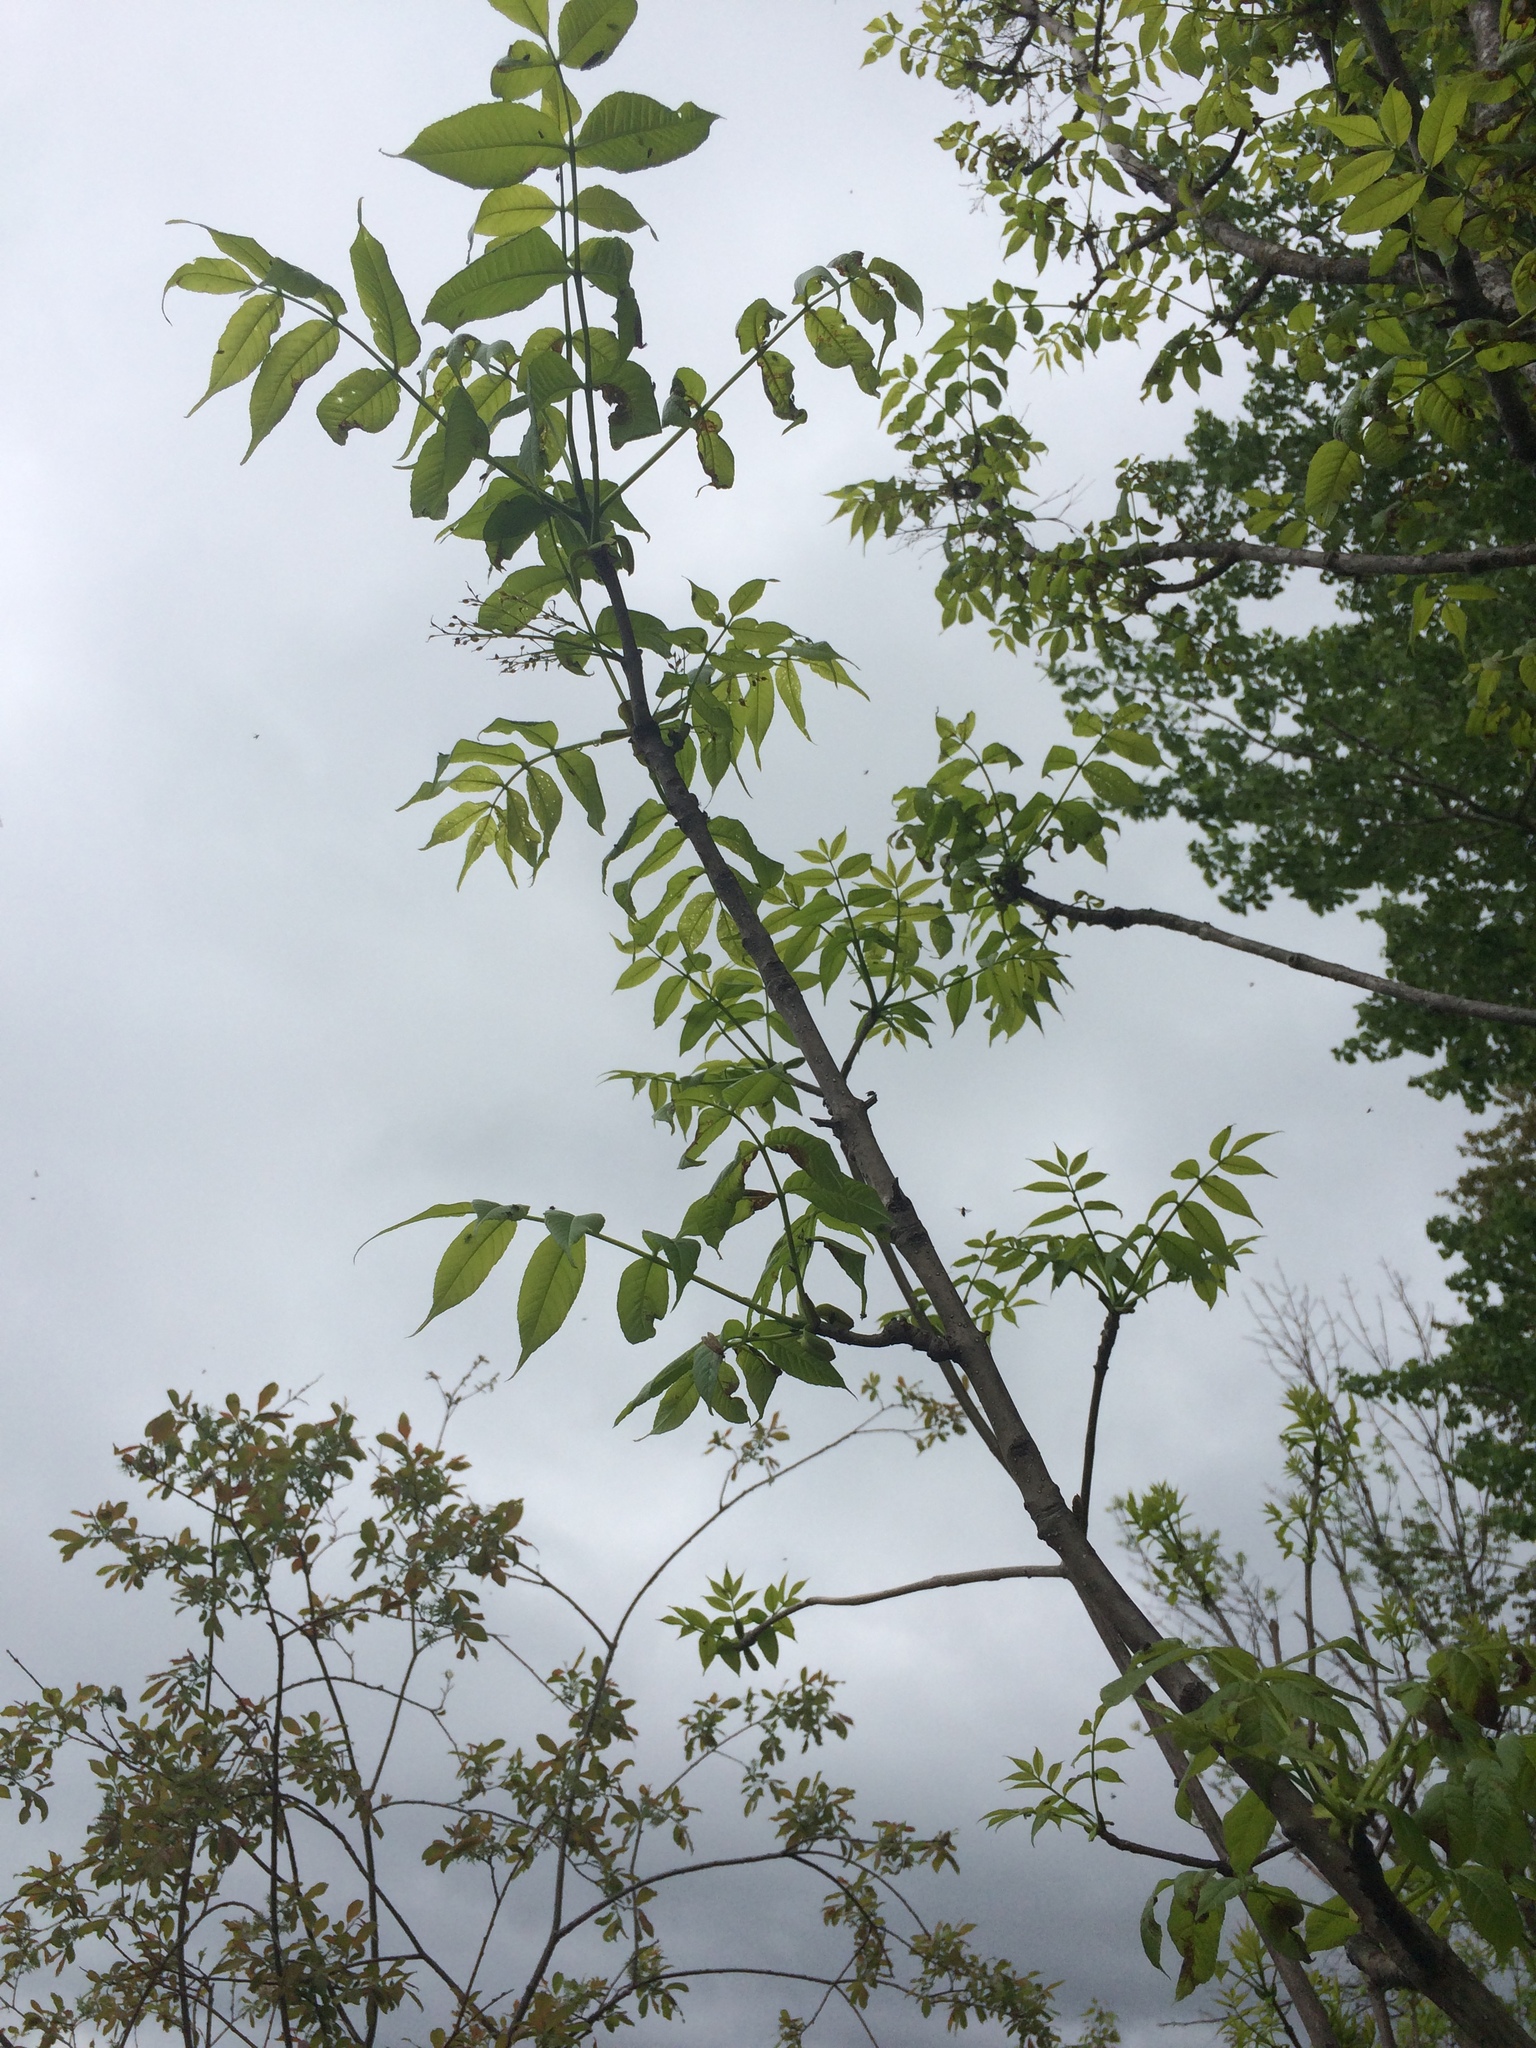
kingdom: Plantae
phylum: Tracheophyta
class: Magnoliopsida
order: Lamiales
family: Oleaceae
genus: Fraxinus
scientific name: Fraxinus nigra
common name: Black ash
